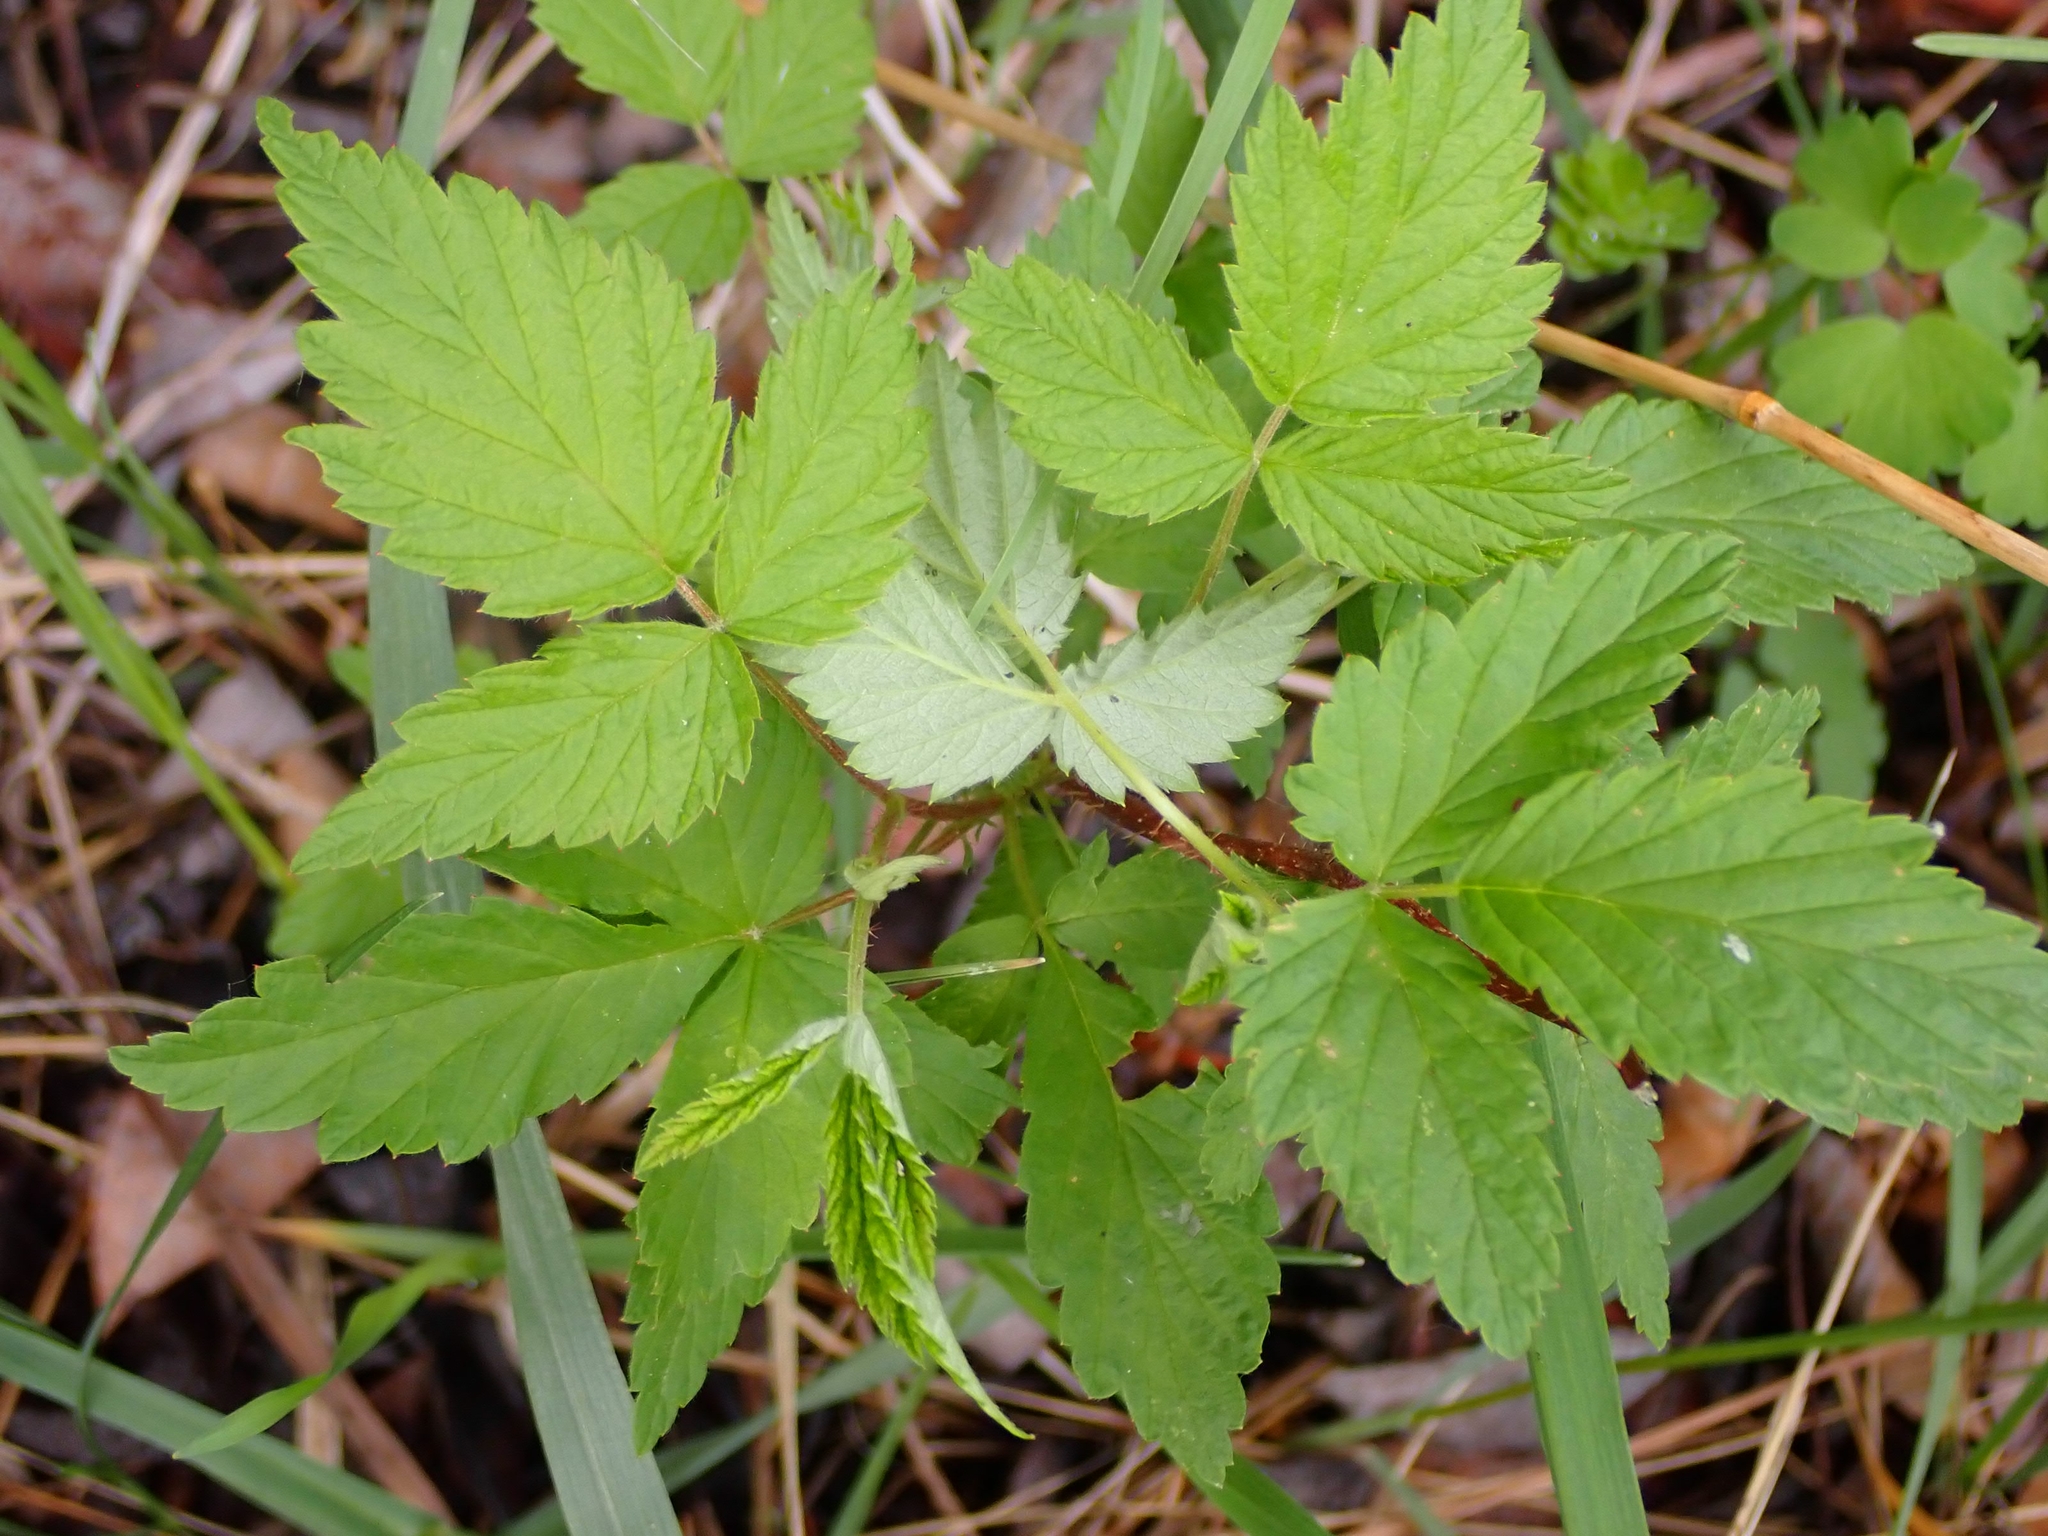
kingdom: Plantae
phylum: Tracheophyta
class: Magnoliopsida
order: Rosales
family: Rosaceae
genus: Rubus
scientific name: Rubus idaeus
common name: Raspberry
